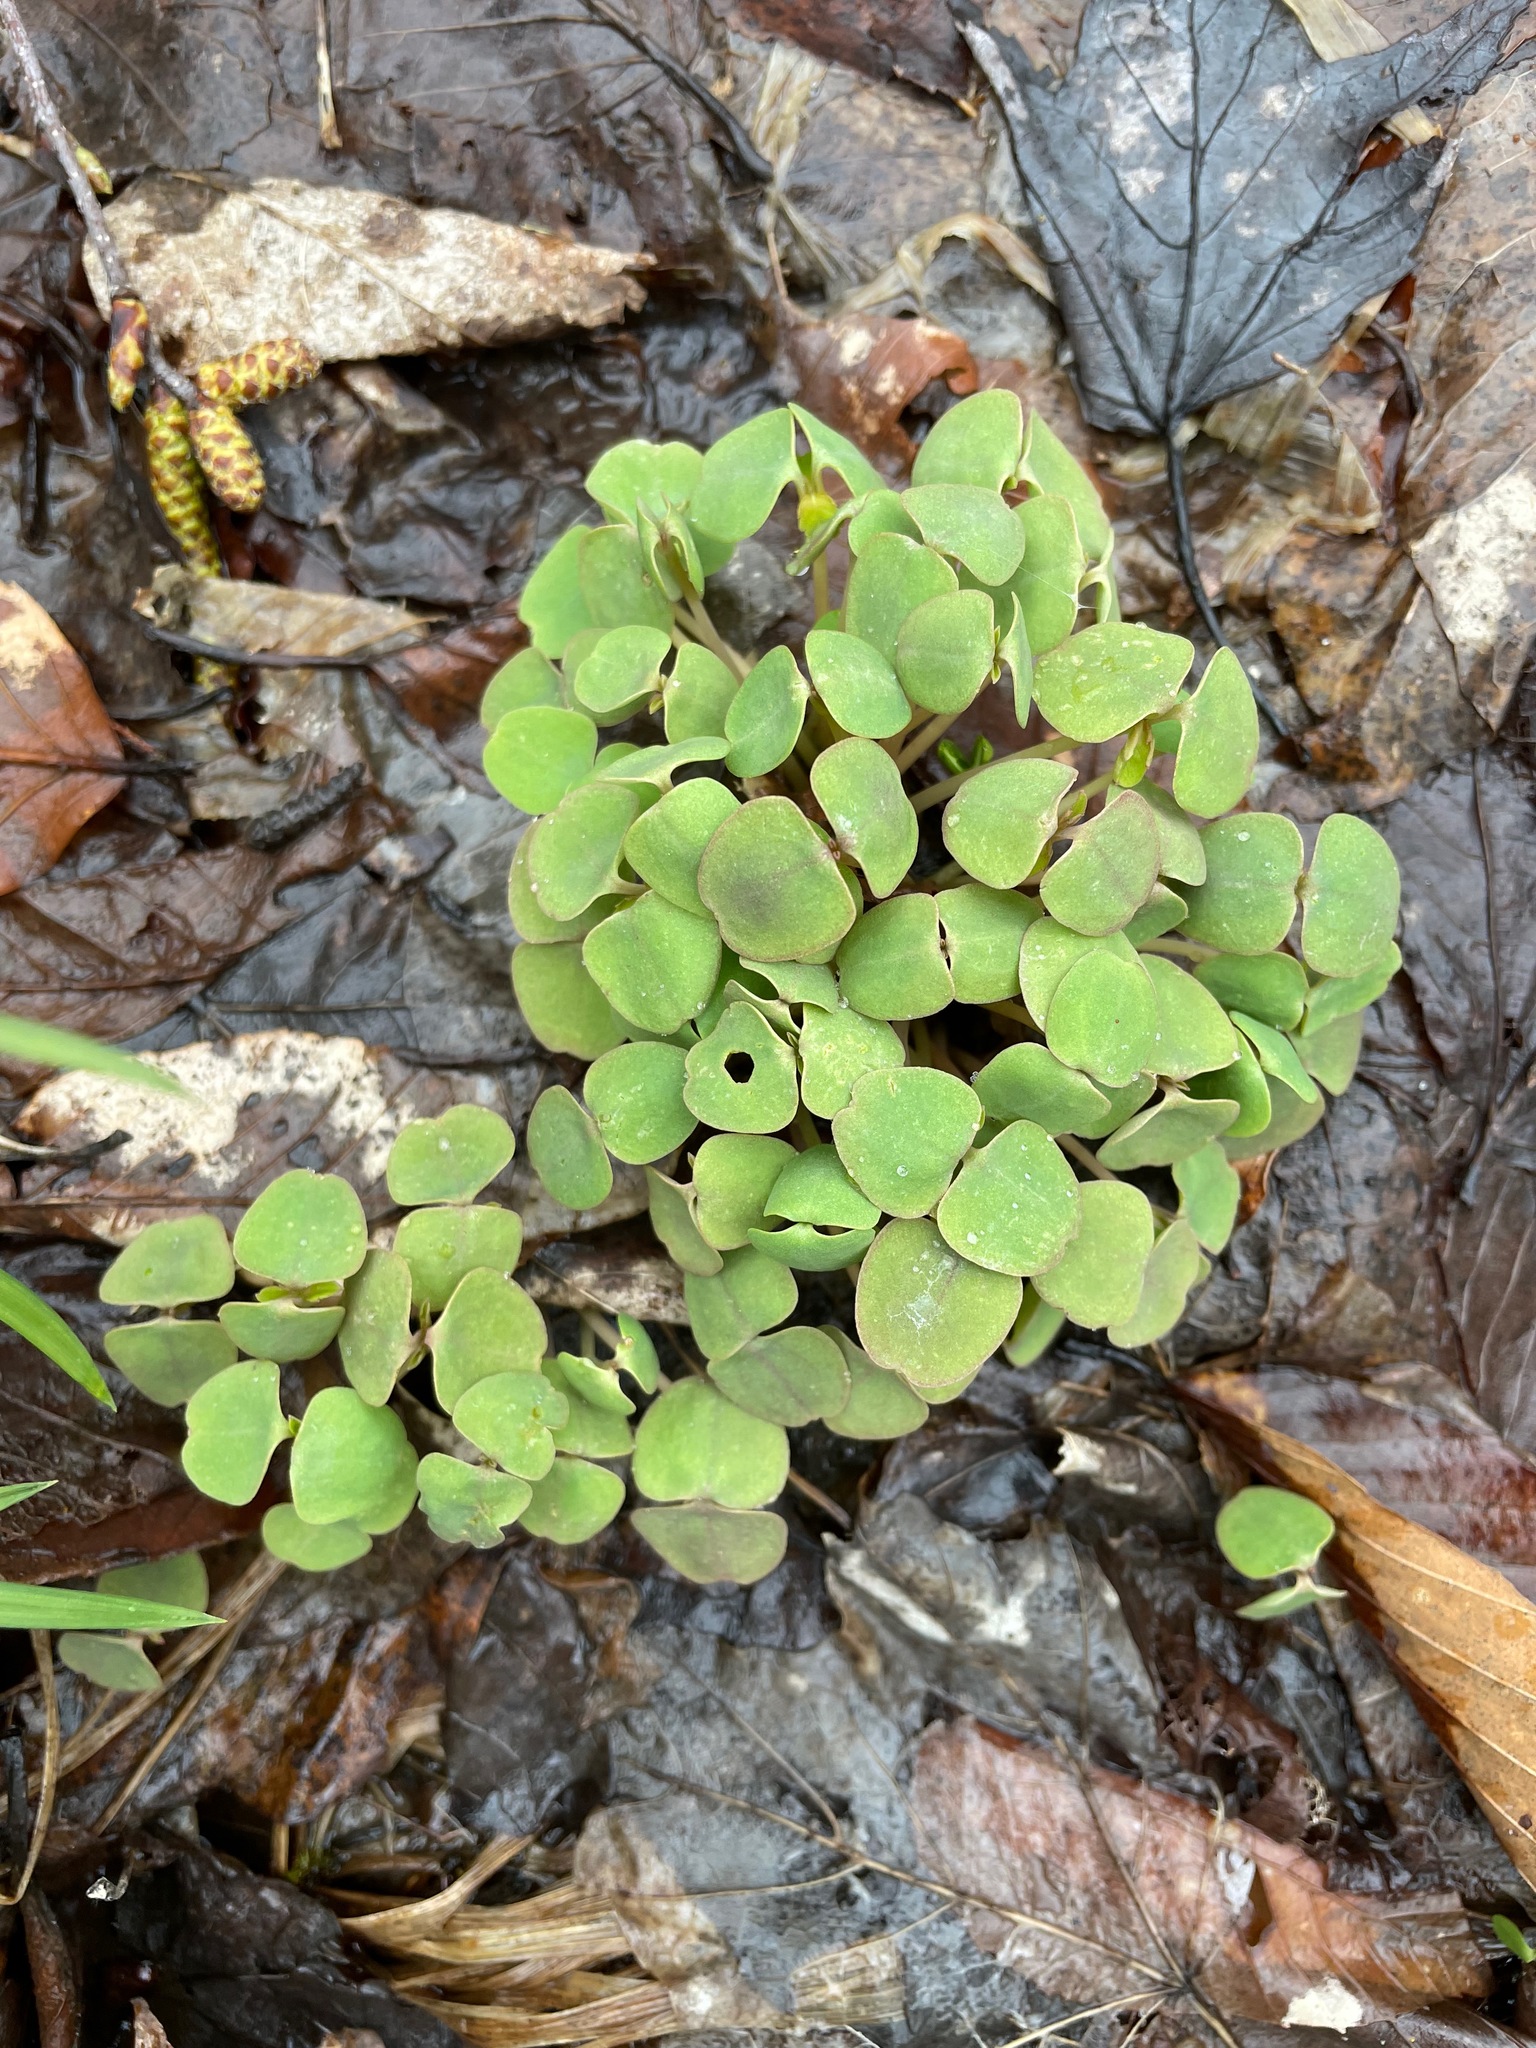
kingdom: Plantae
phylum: Tracheophyta
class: Magnoliopsida
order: Ericales
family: Balsaminaceae
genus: Impatiens
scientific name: Impatiens
